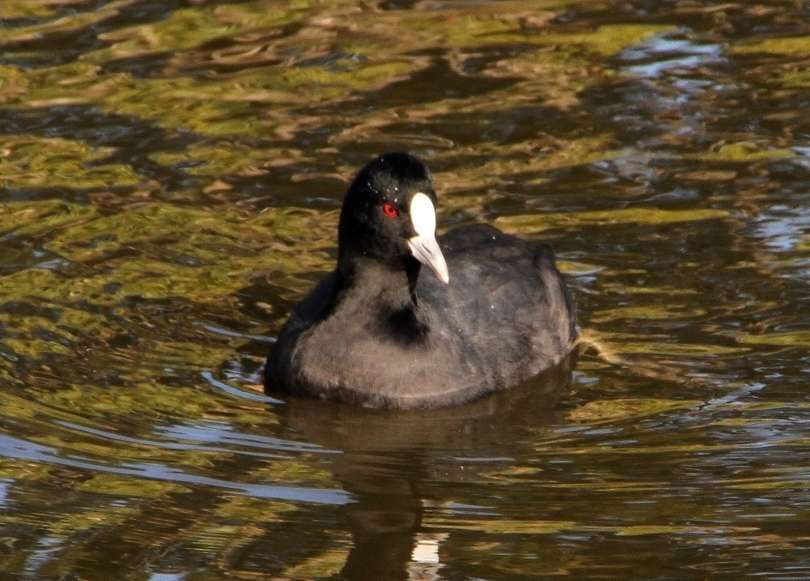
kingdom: Animalia
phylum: Chordata
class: Aves
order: Gruiformes
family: Rallidae
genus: Fulica
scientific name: Fulica atra
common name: Eurasian coot
